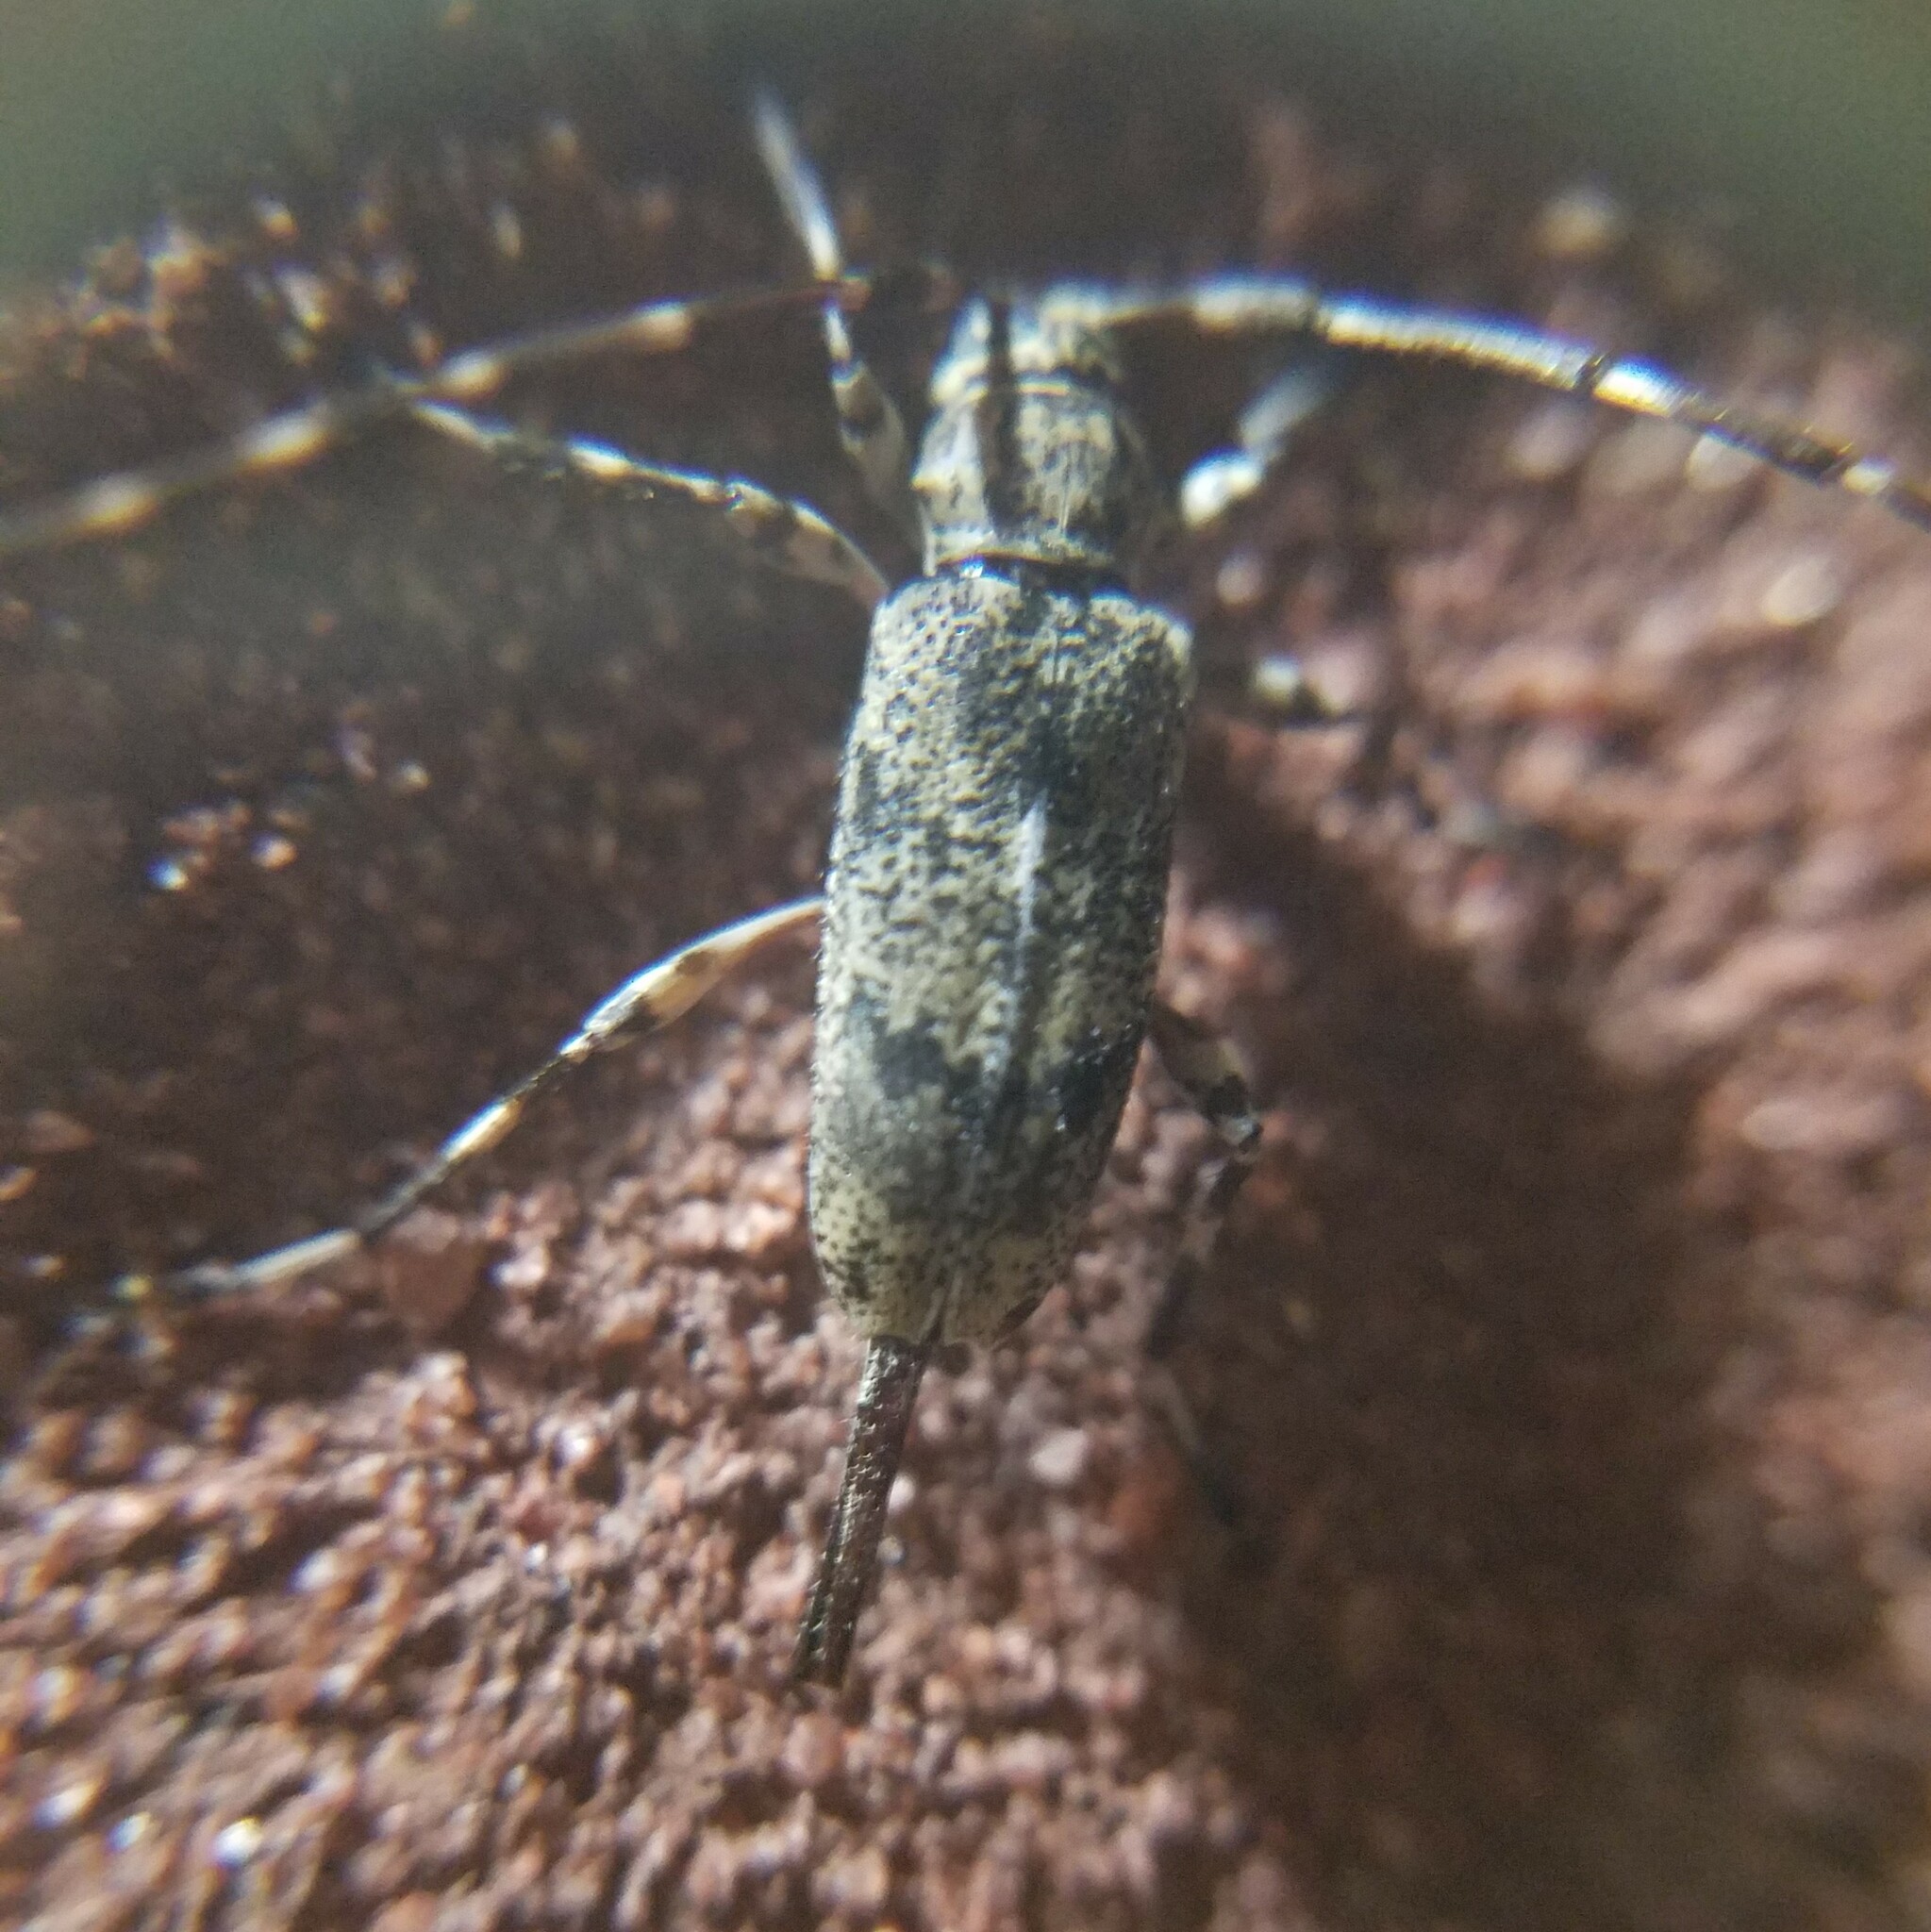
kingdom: Animalia
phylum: Arthropoda
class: Insecta
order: Coleoptera
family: Cerambycidae
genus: Graphisurus
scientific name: Graphisurus fasciatus
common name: Banded graphisurus
